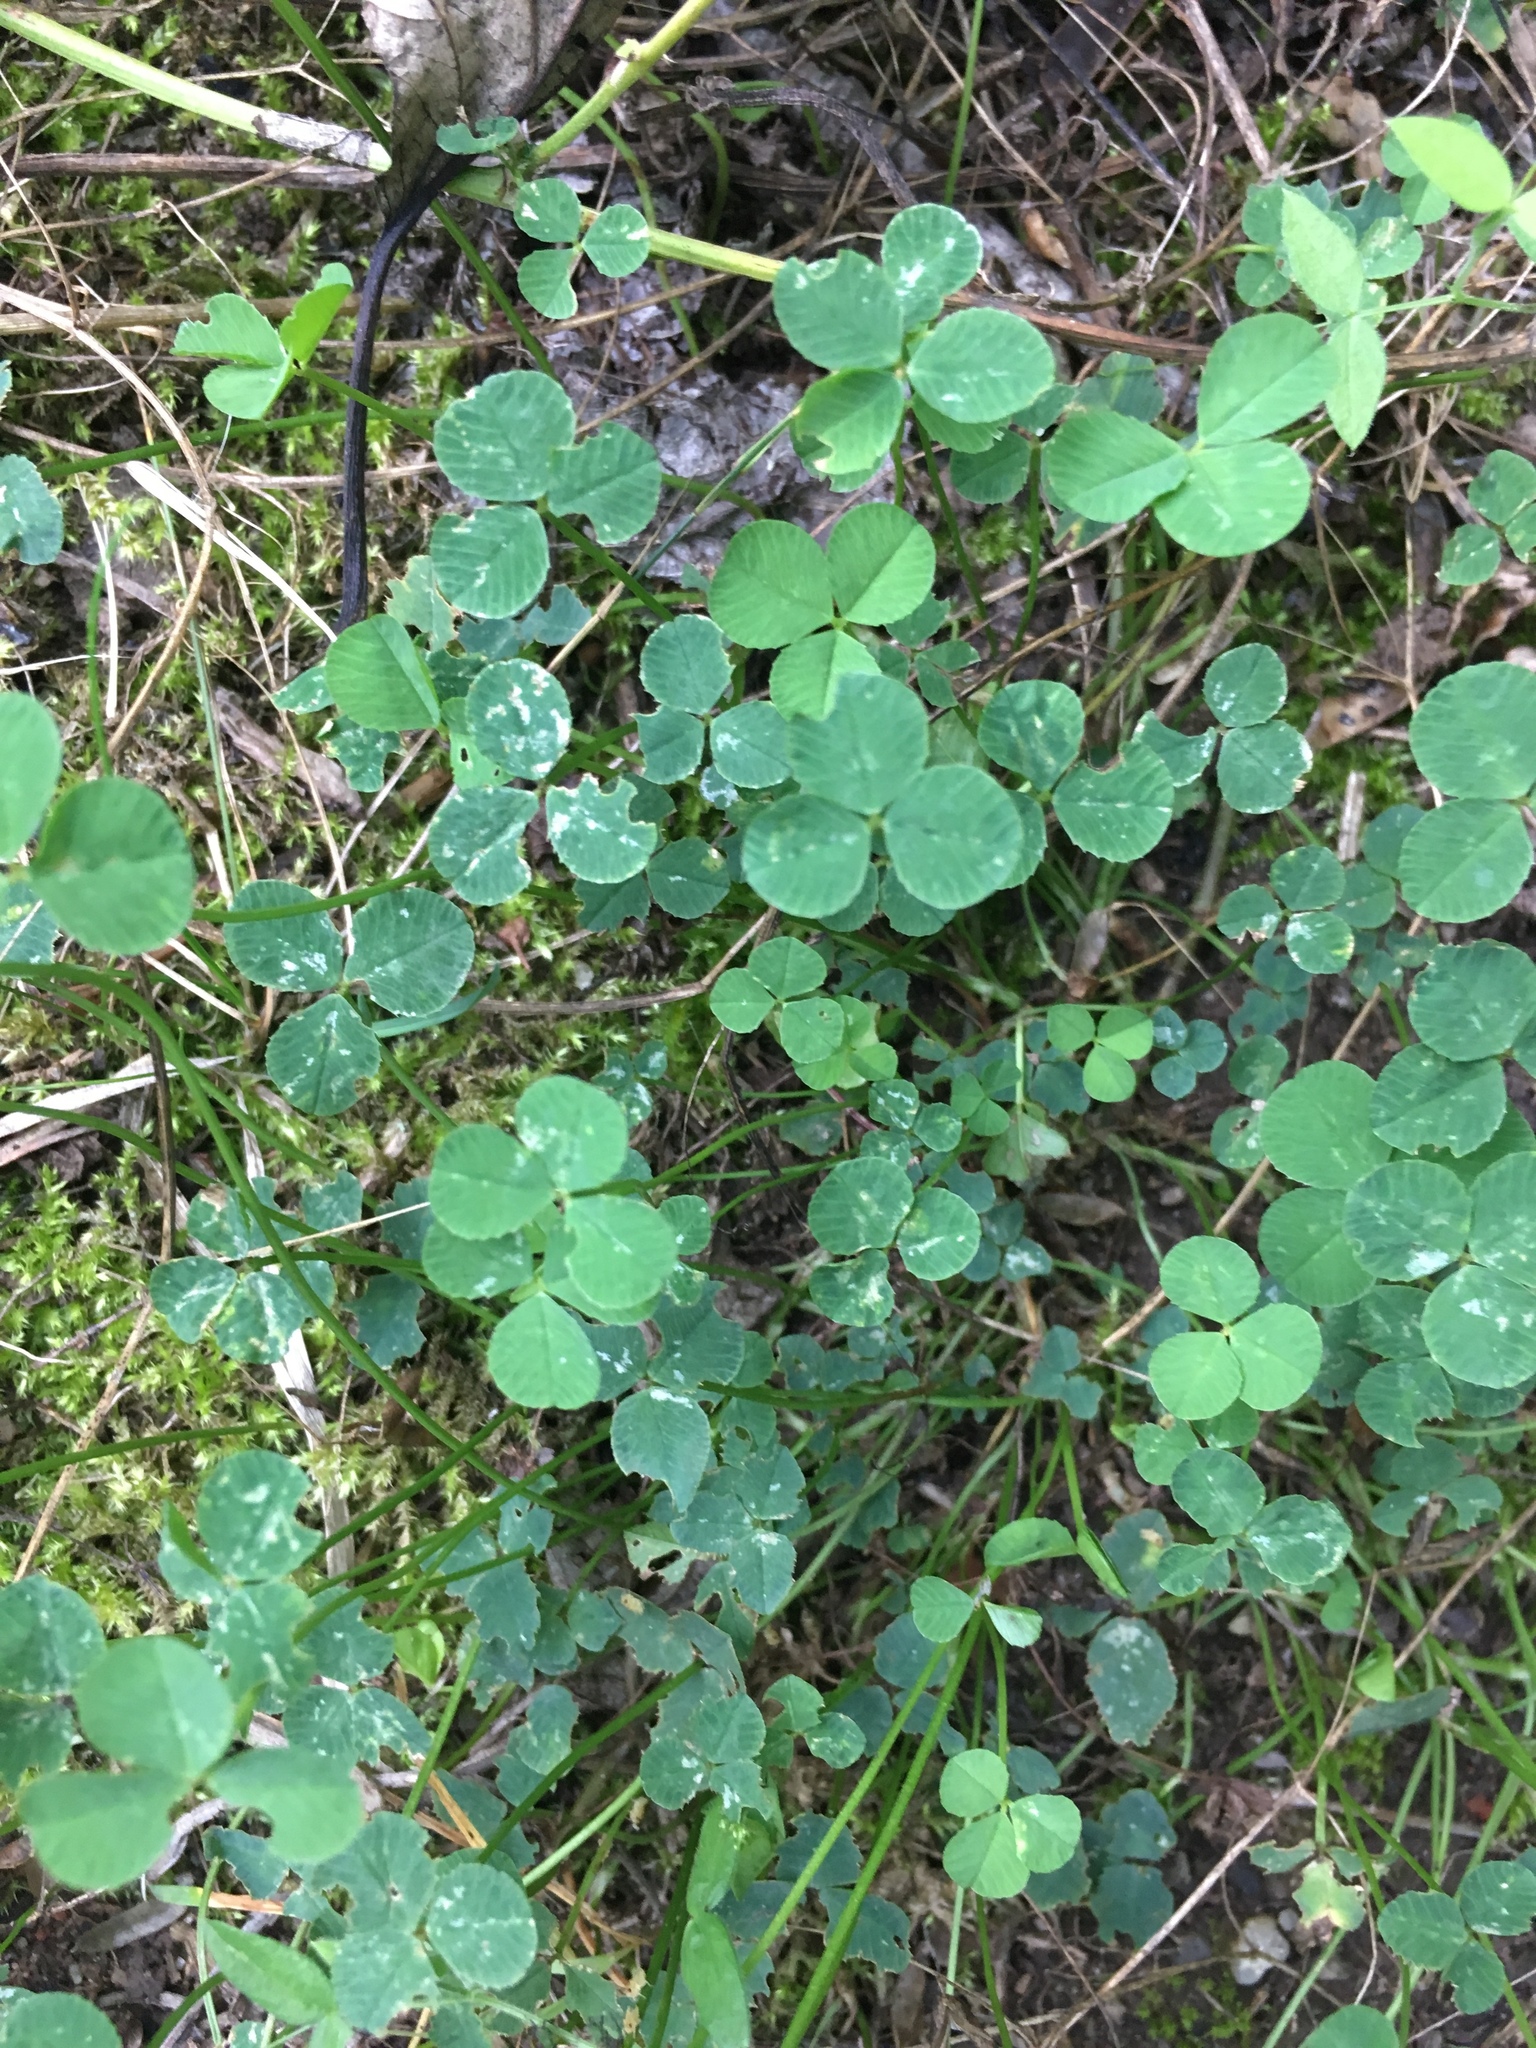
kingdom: Plantae
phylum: Tracheophyta
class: Magnoliopsida
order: Fabales
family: Fabaceae
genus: Trifolium
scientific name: Trifolium repens
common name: White clover
